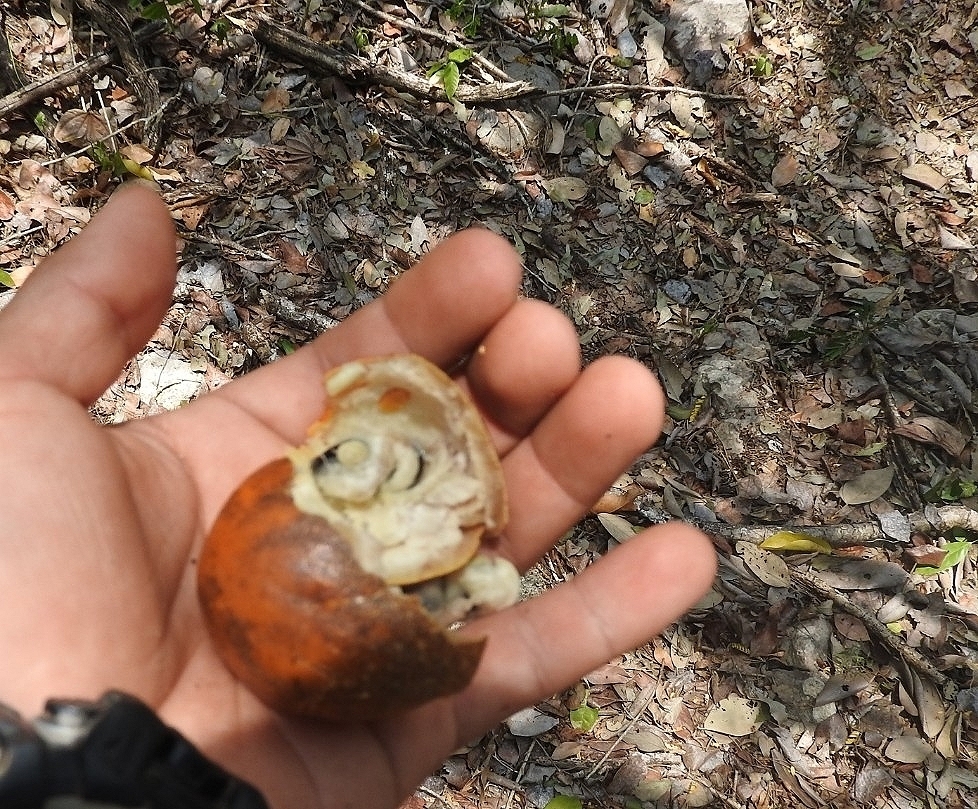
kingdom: Plantae
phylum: Tracheophyta
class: Magnoliopsida
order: Ericales
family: Ebenaceae
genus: Diospyros
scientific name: Diospyros nigra
